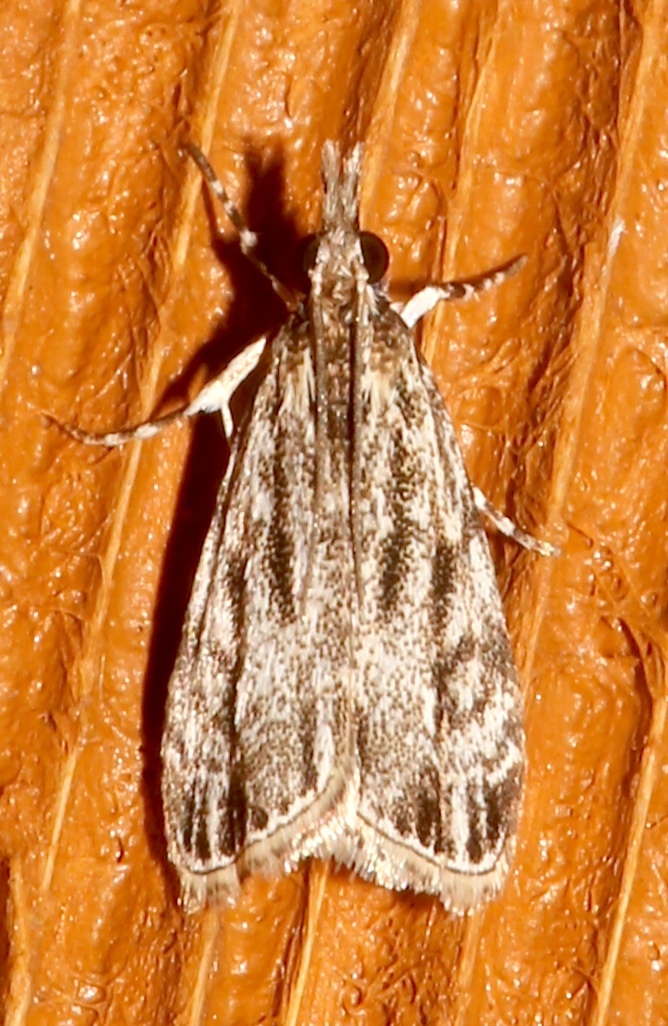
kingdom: Animalia
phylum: Arthropoda
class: Insecta
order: Lepidoptera
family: Crambidae
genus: Eudonia
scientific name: Eudonia strigalis
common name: Striped eudonia moth
